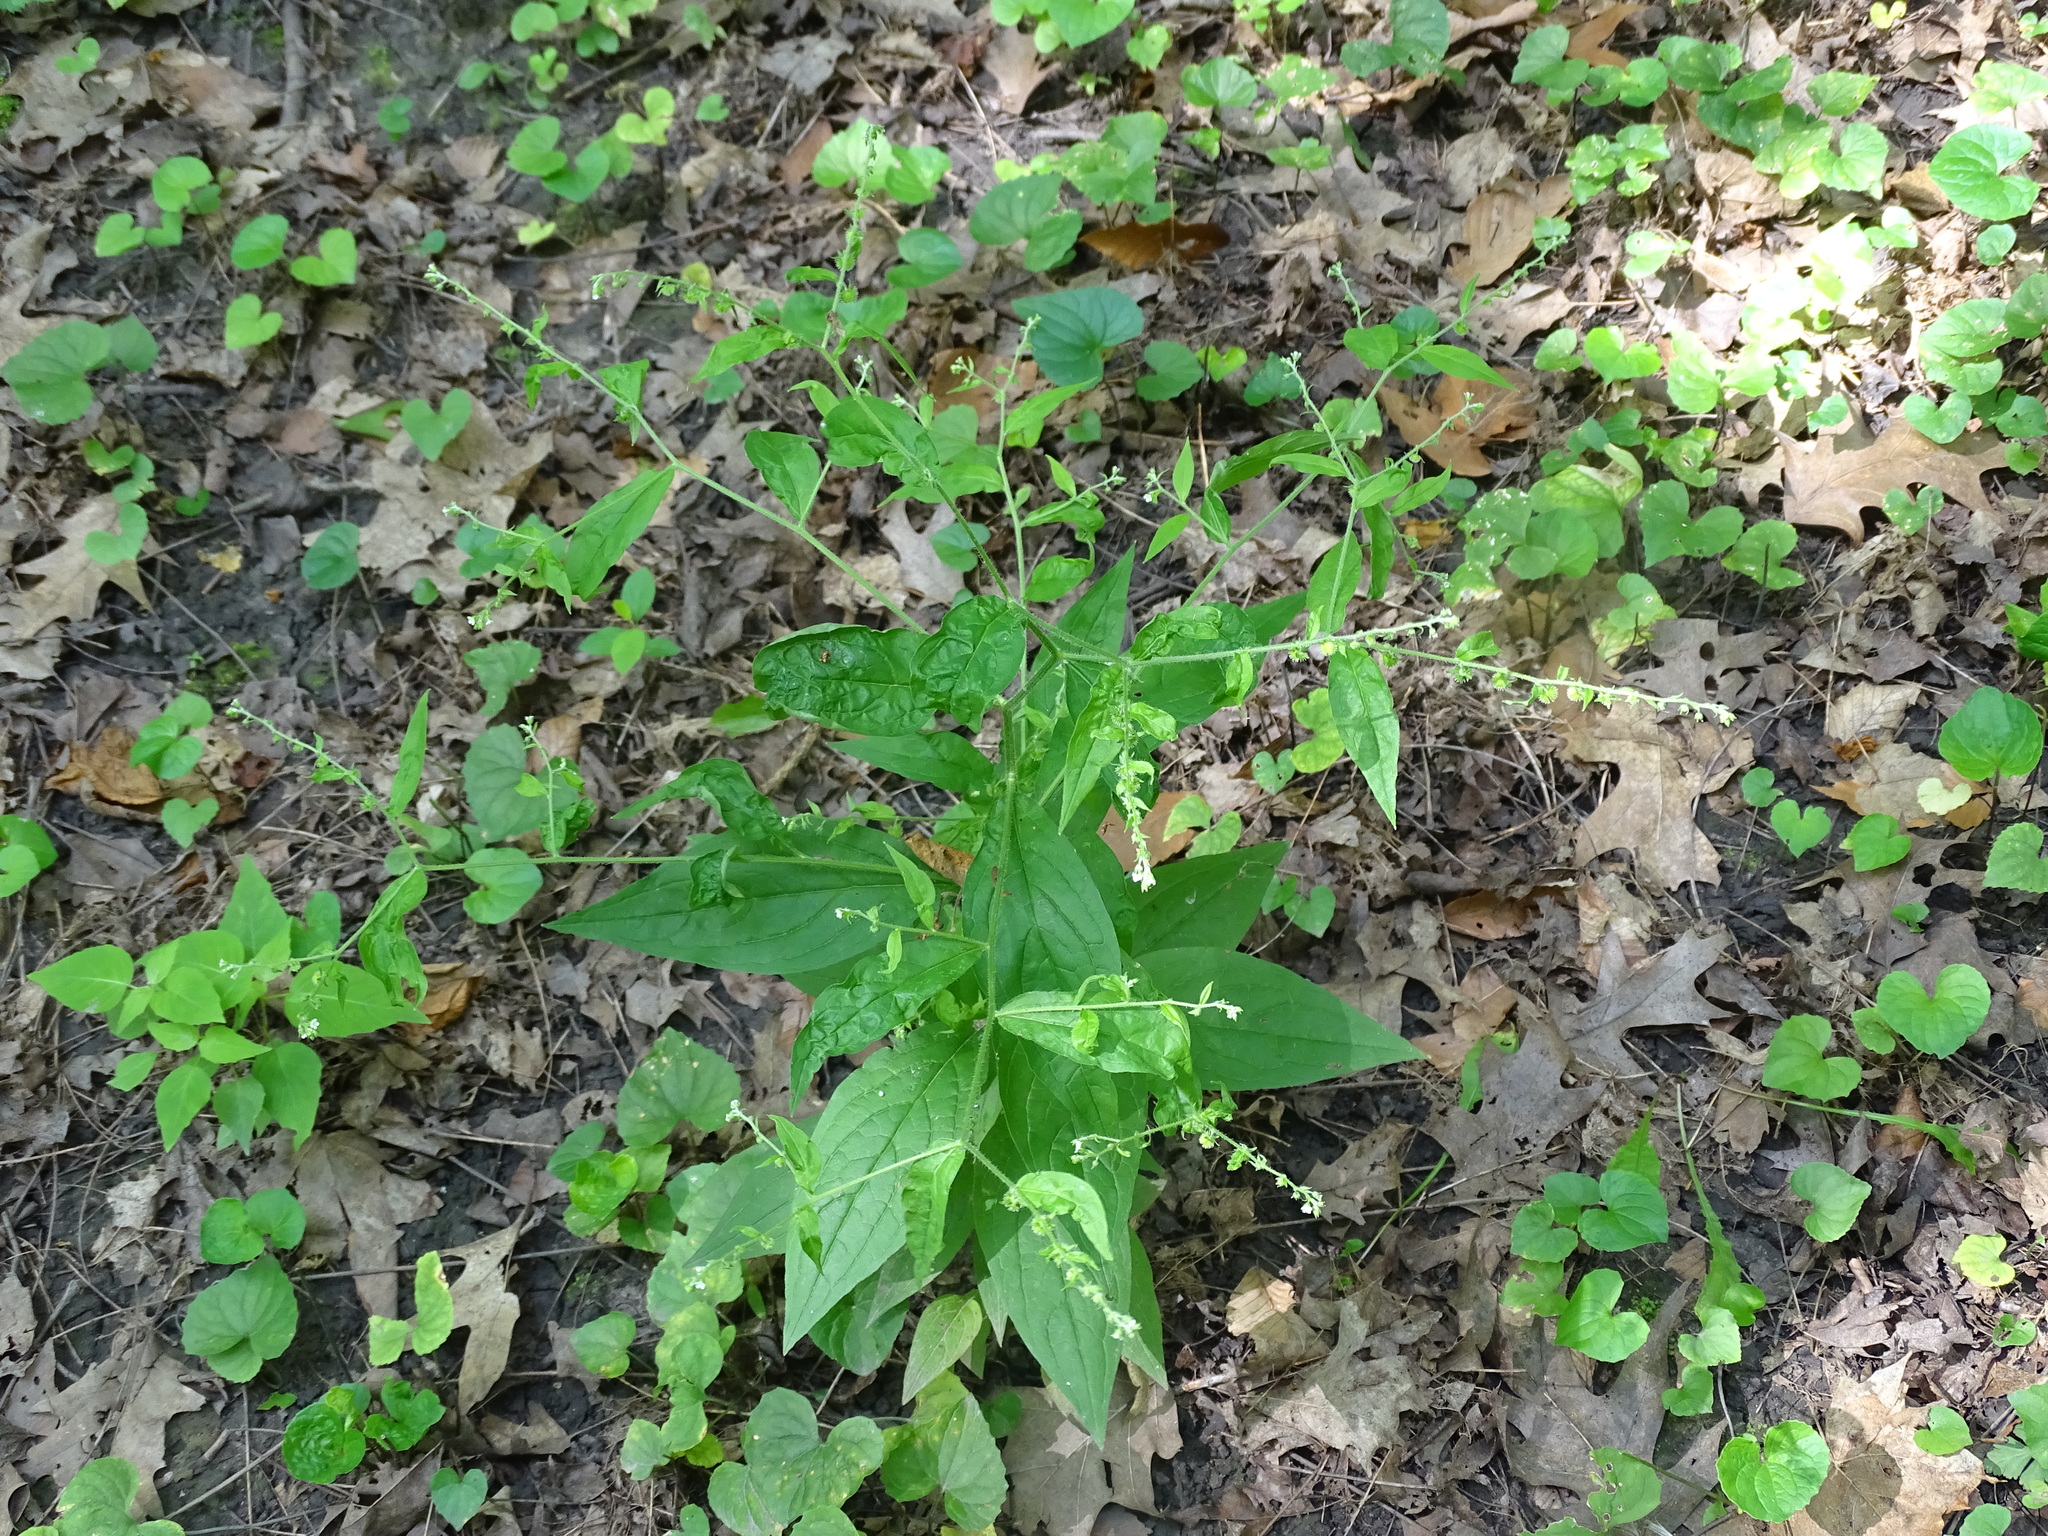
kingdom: Plantae
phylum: Tracheophyta
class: Magnoliopsida
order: Boraginales
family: Boraginaceae
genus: Hackelia
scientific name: Hackelia virginiana
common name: Beggar's-lice
